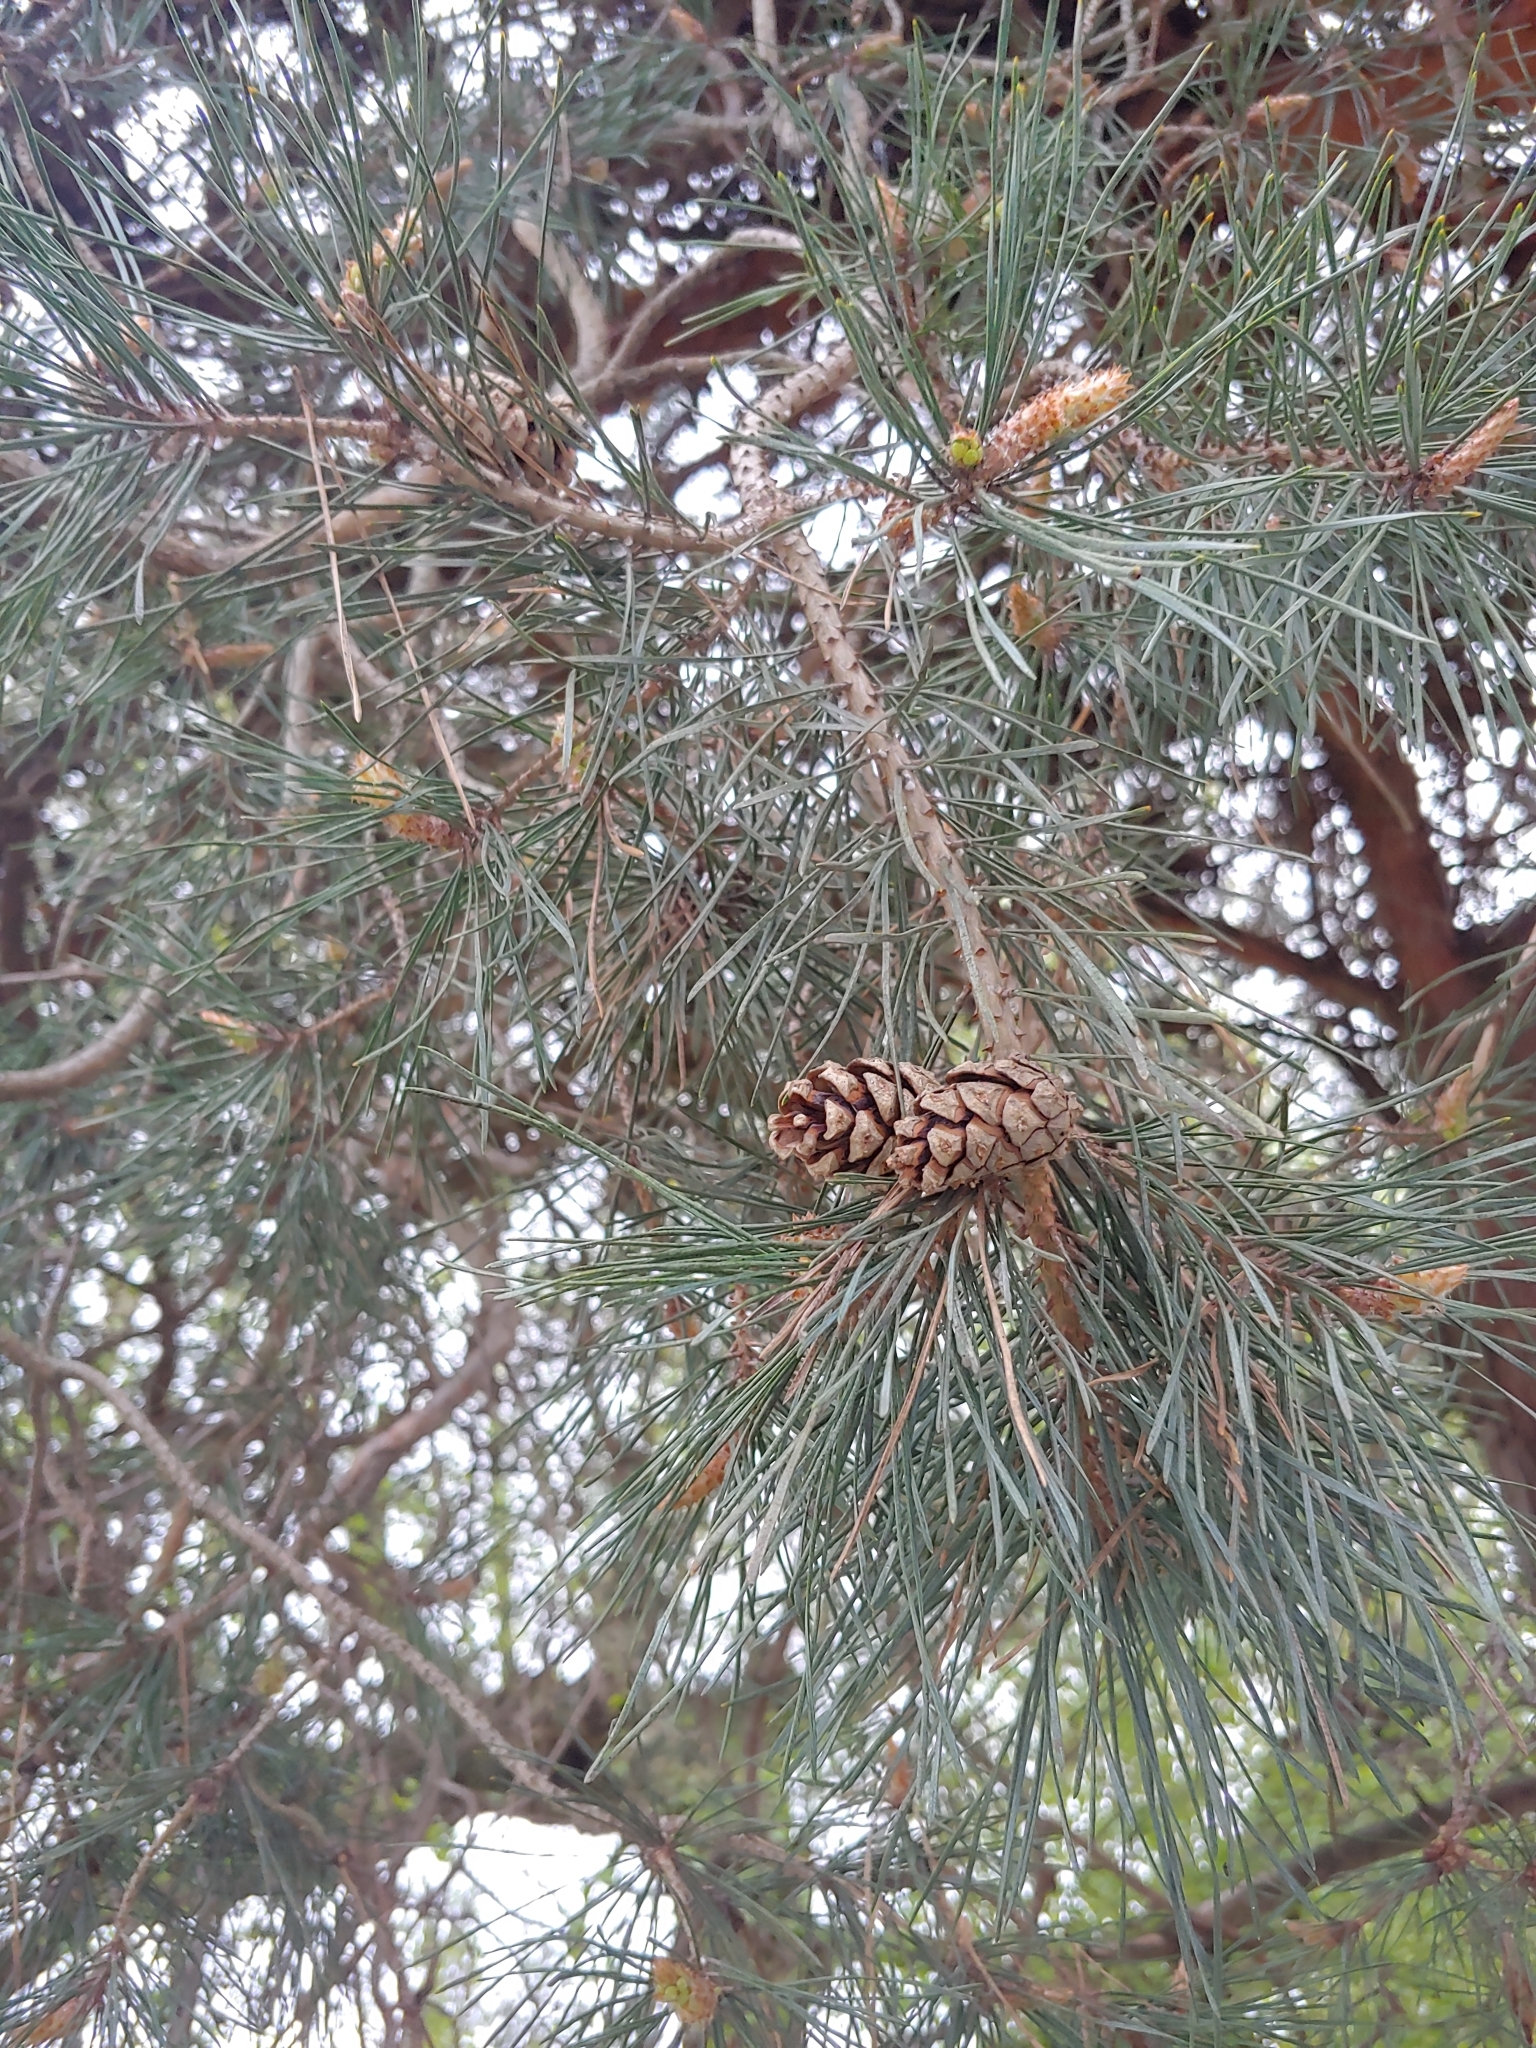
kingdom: Plantae
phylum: Tracheophyta
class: Pinopsida
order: Pinales
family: Pinaceae
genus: Pinus
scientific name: Pinus sylvestris
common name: Scots pine
